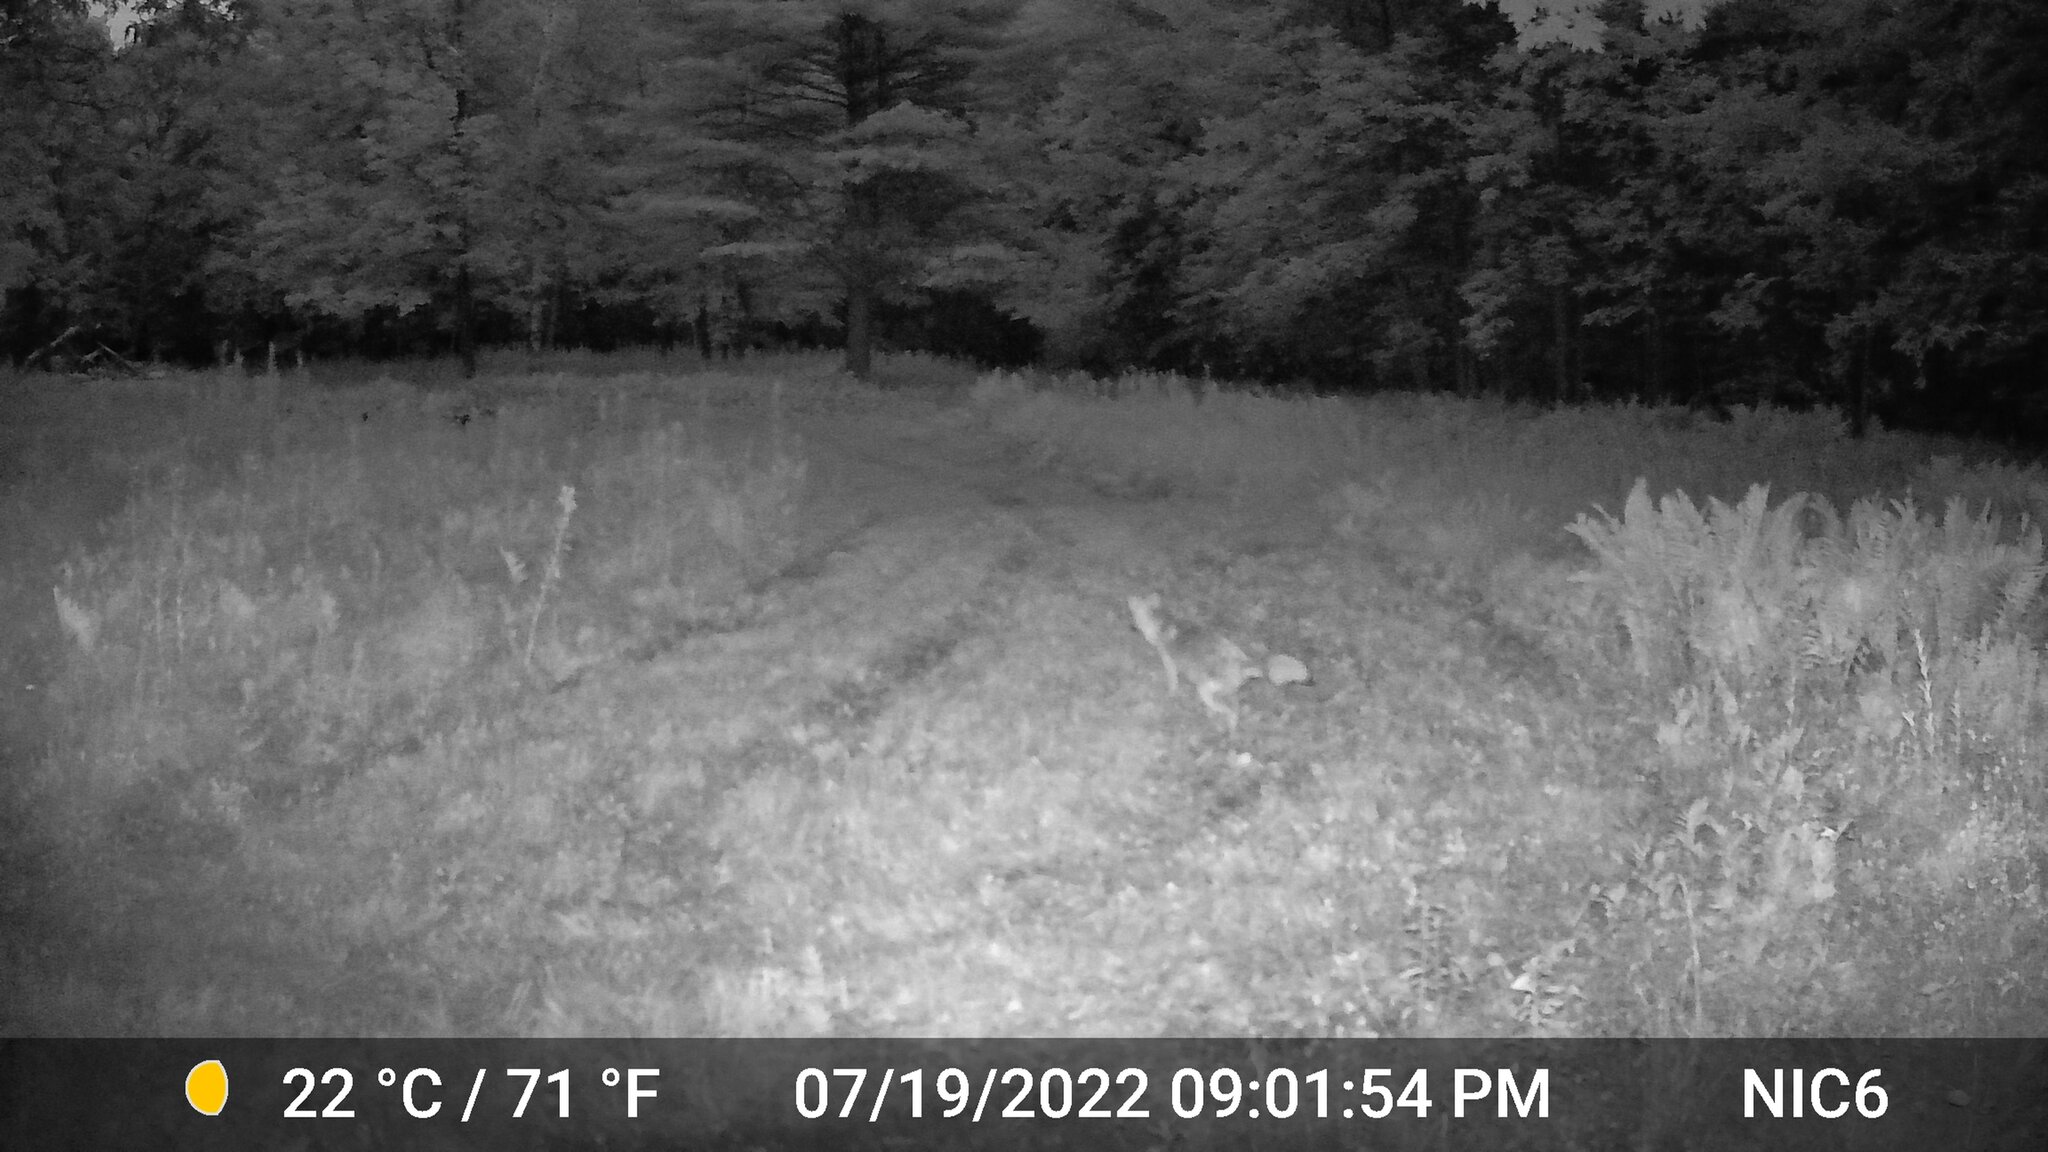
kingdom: Animalia
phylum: Chordata
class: Mammalia
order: Carnivora
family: Canidae
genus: Canis
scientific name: Canis latrans
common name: Coyote
